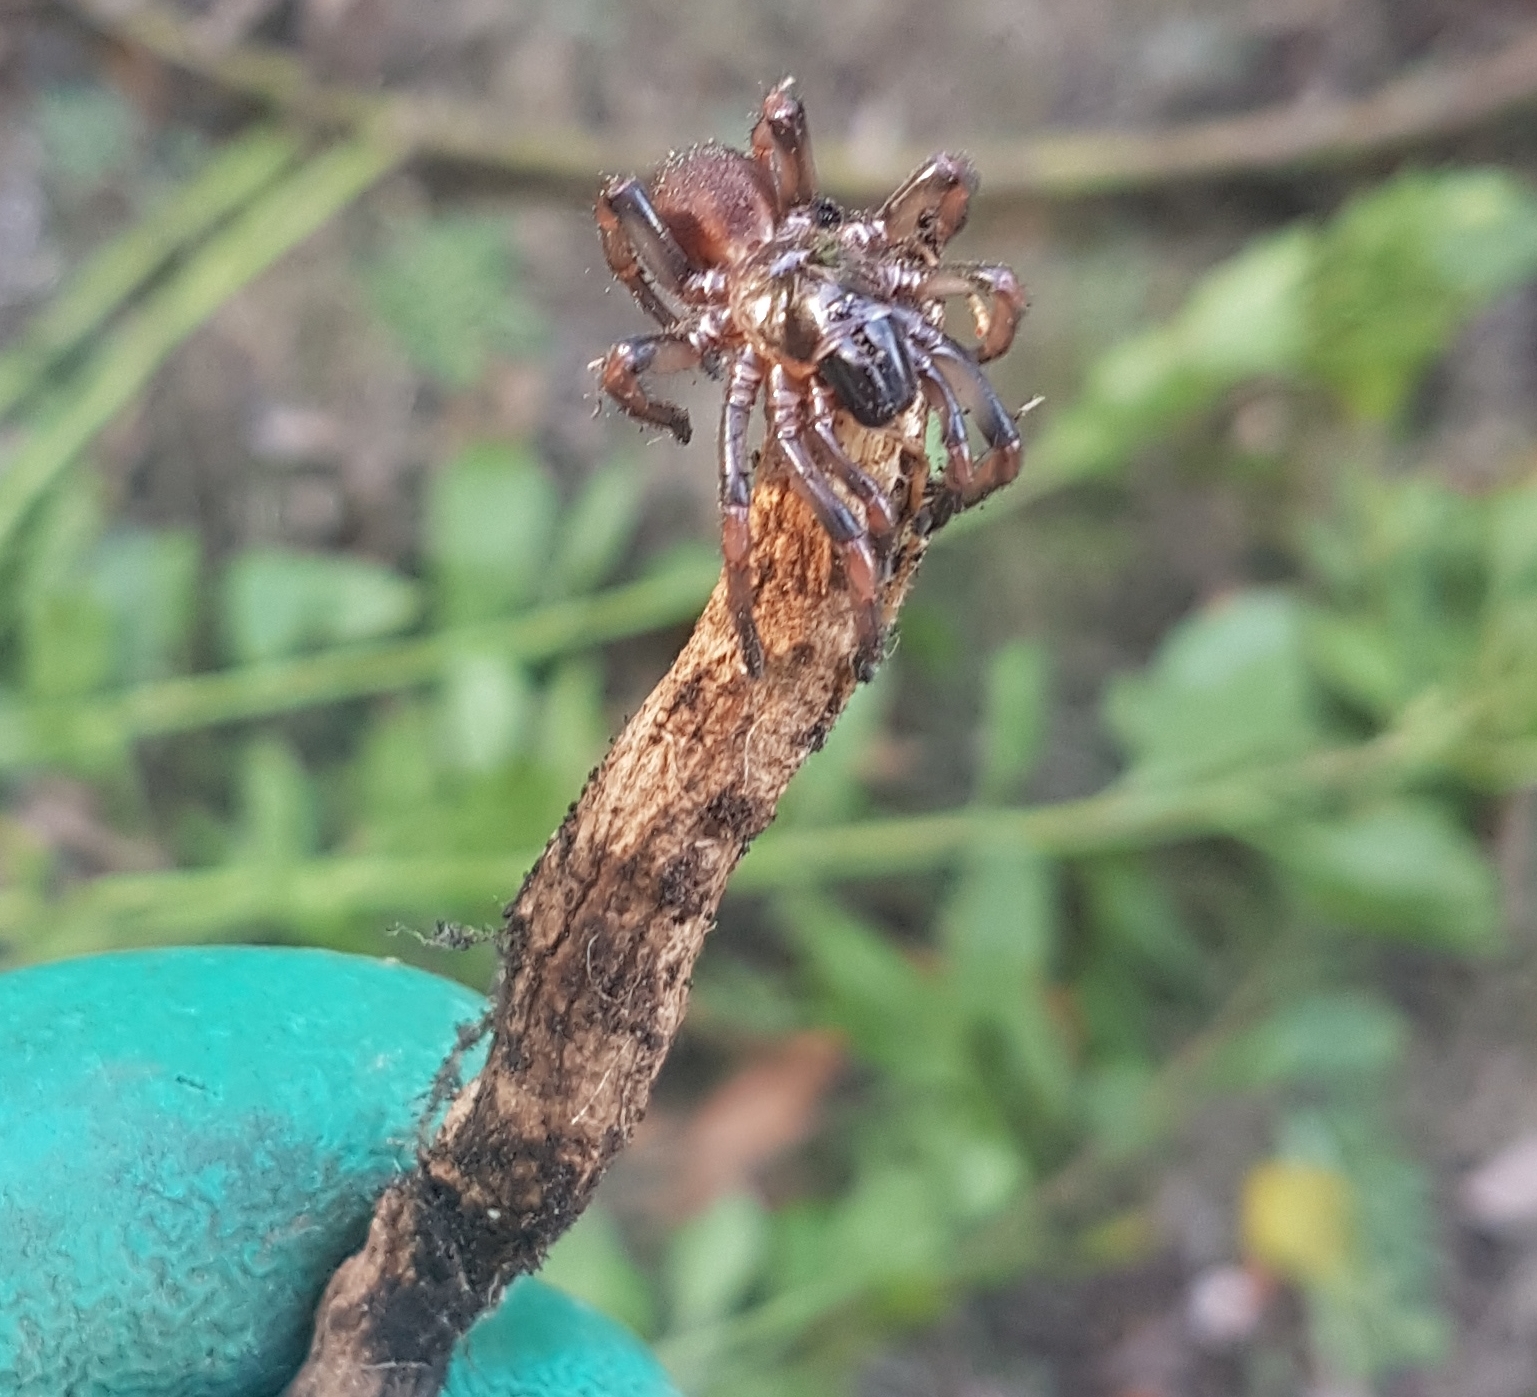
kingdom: Animalia
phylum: Arthropoda
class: Arachnida
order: Araneae
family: Pycnothelidae
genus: Stanwellia
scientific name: Stanwellia
